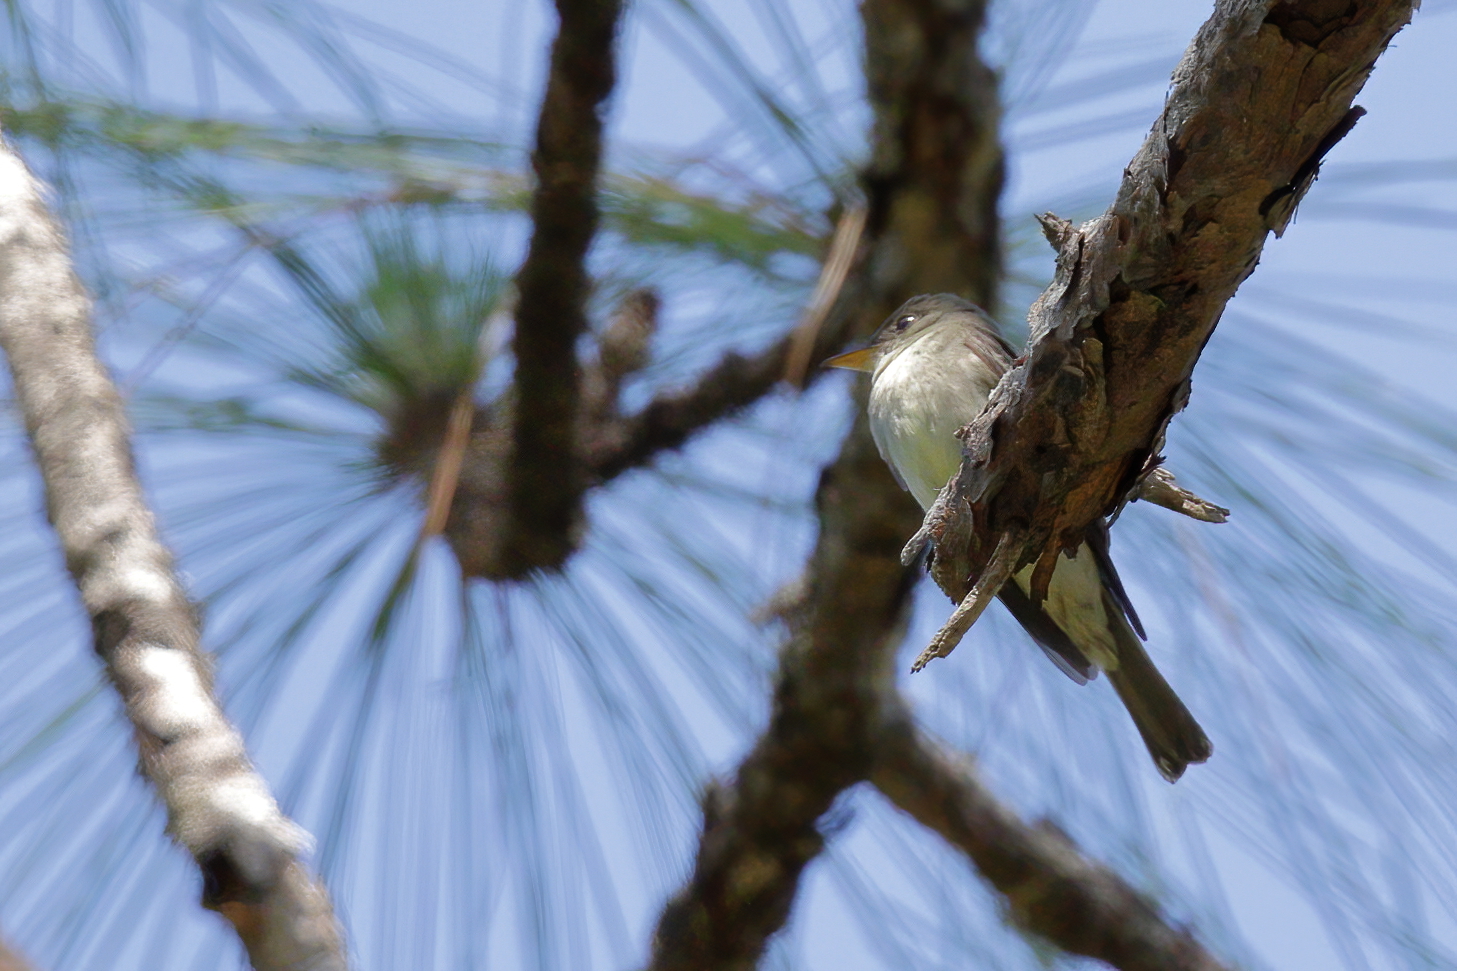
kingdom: Animalia
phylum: Chordata
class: Aves
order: Passeriformes
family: Tyrannidae
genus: Contopus
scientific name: Contopus virens
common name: Eastern wood-pewee
